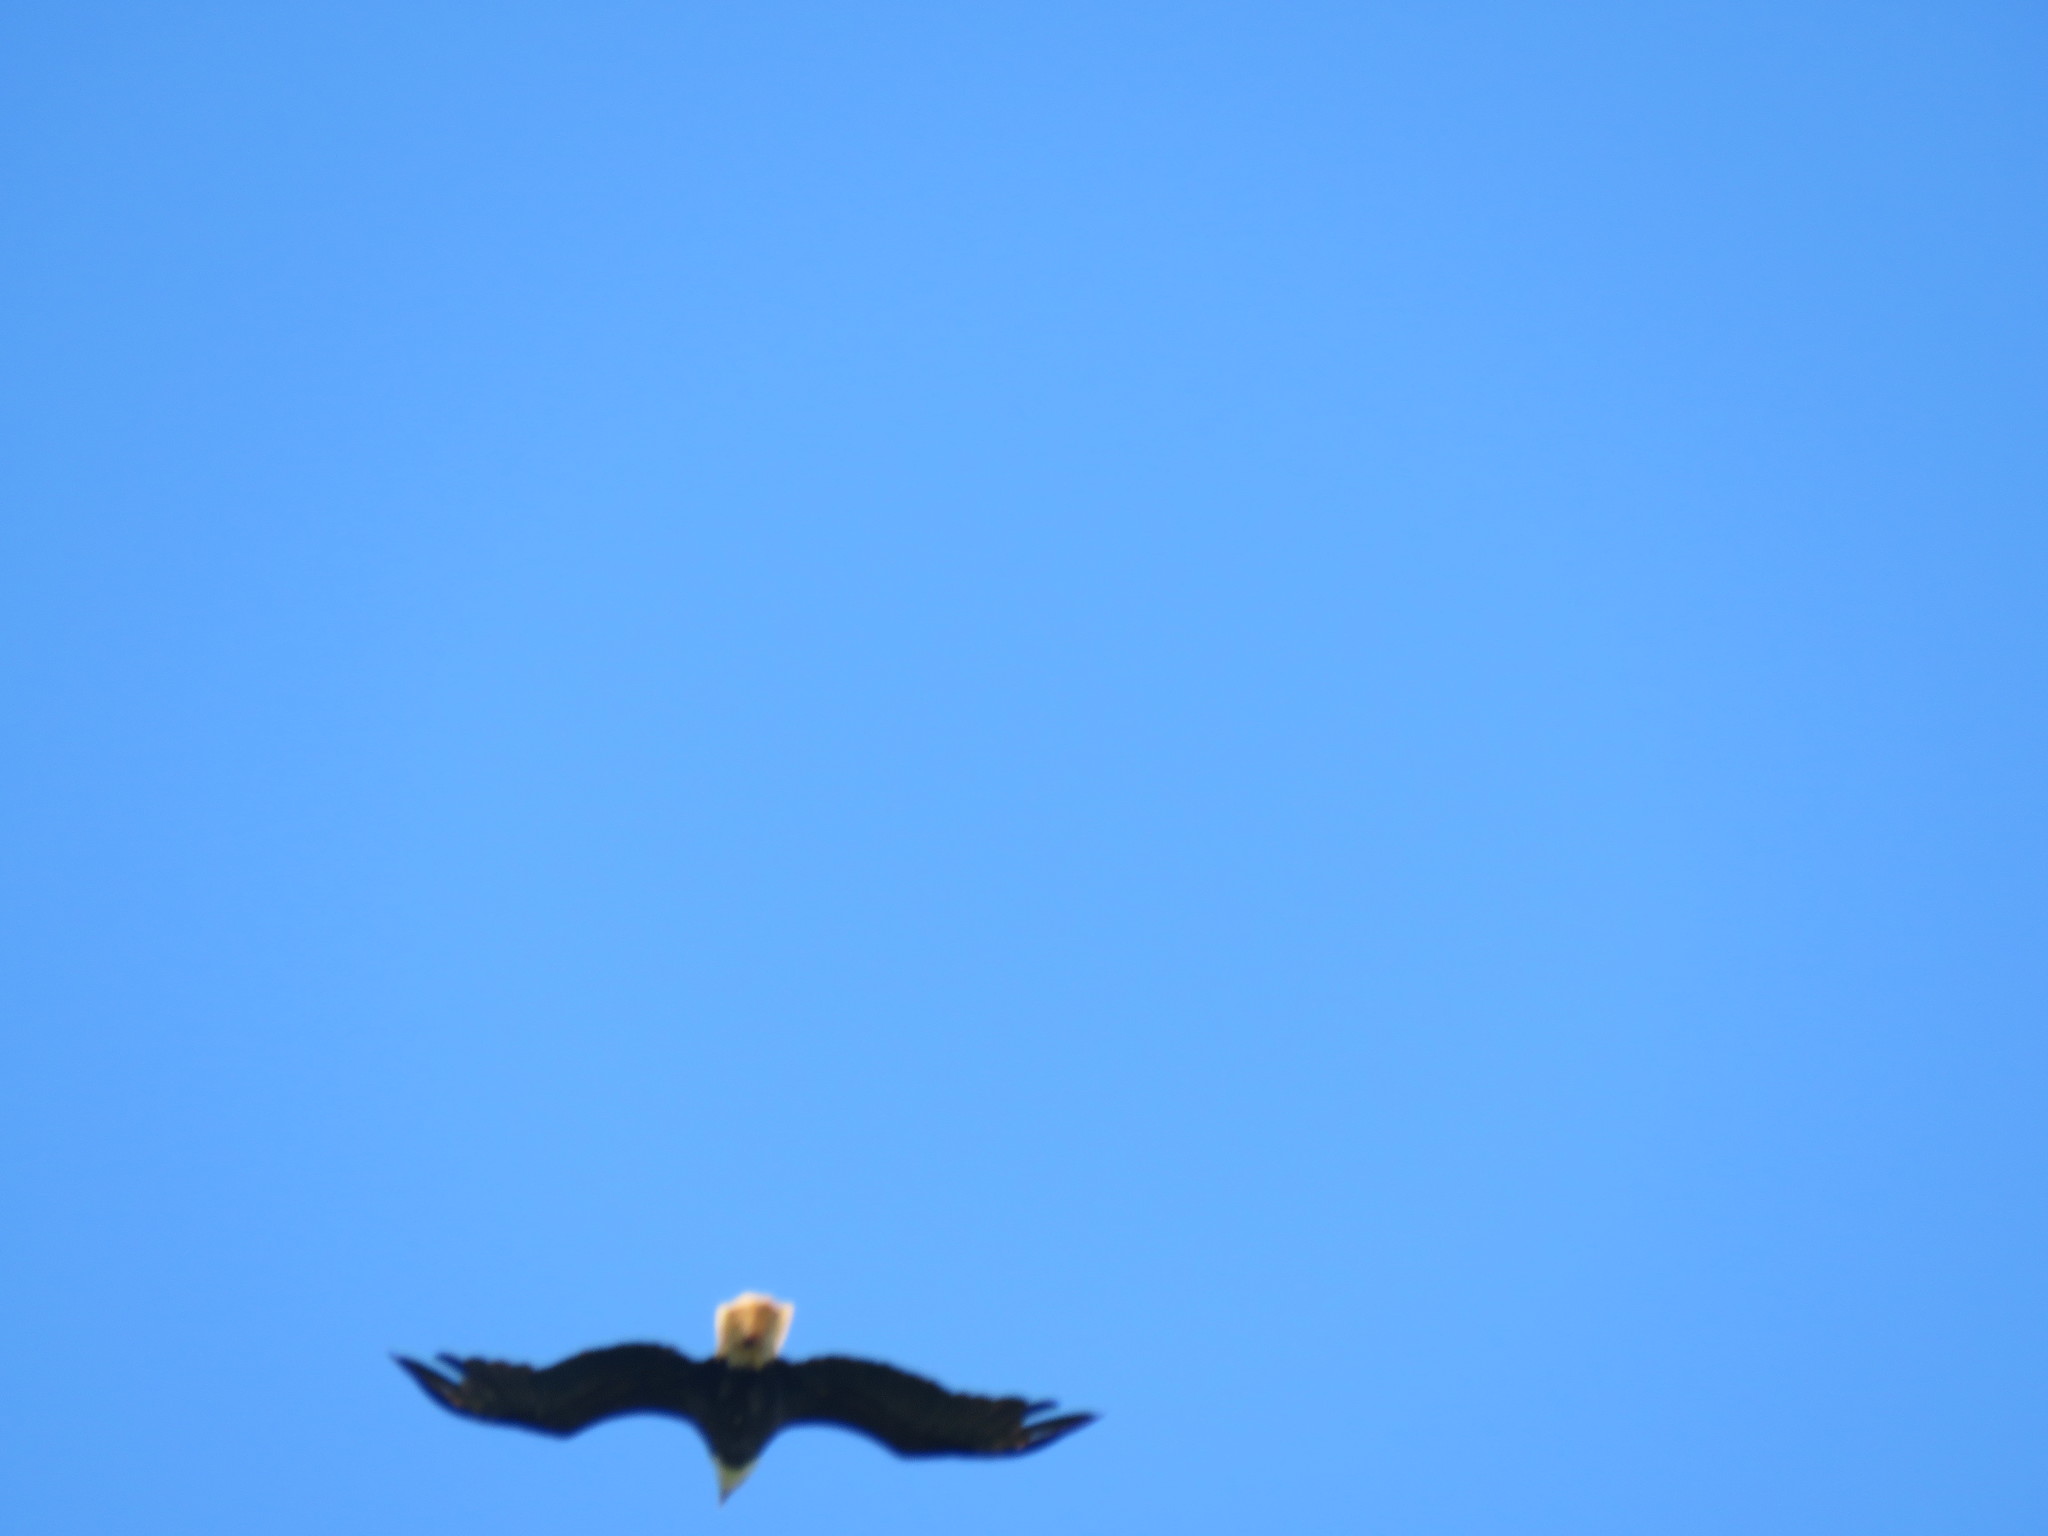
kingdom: Animalia
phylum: Chordata
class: Aves
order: Accipitriformes
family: Accipitridae
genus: Haliaeetus
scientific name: Haliaeetus leucocephalus
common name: Bald eagle
